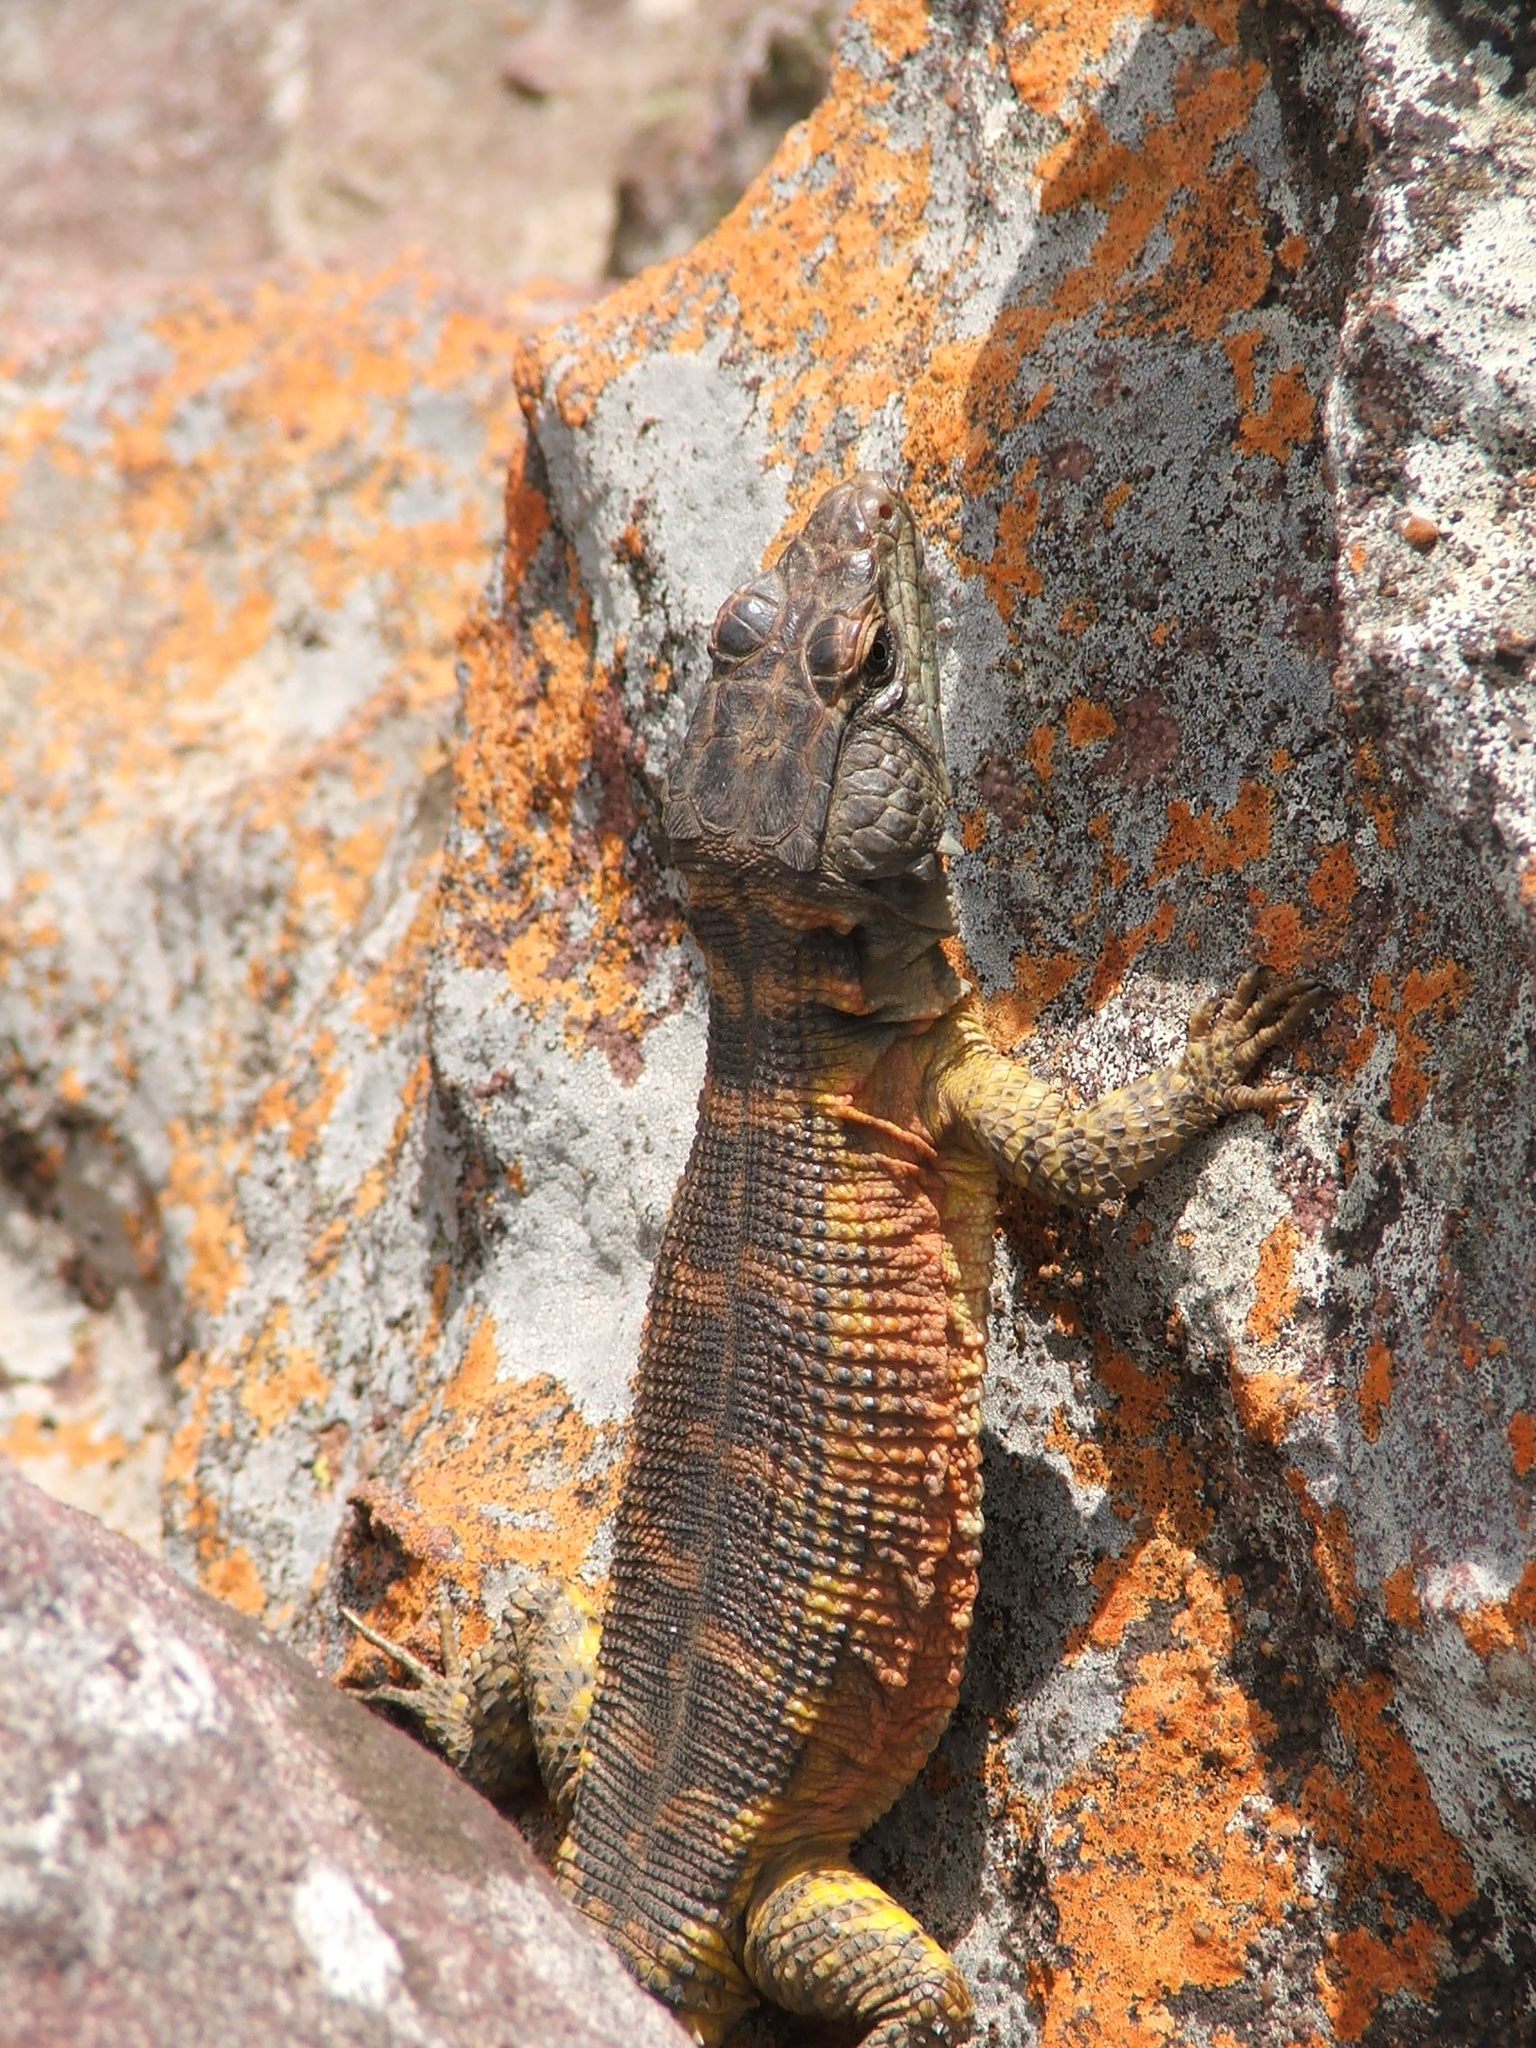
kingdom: Animalia
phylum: Chordata
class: Squamata
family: Cordylidae
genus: Pseudocordylus
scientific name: Pseudocordylus transvaalensis
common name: Northern crag lizard
